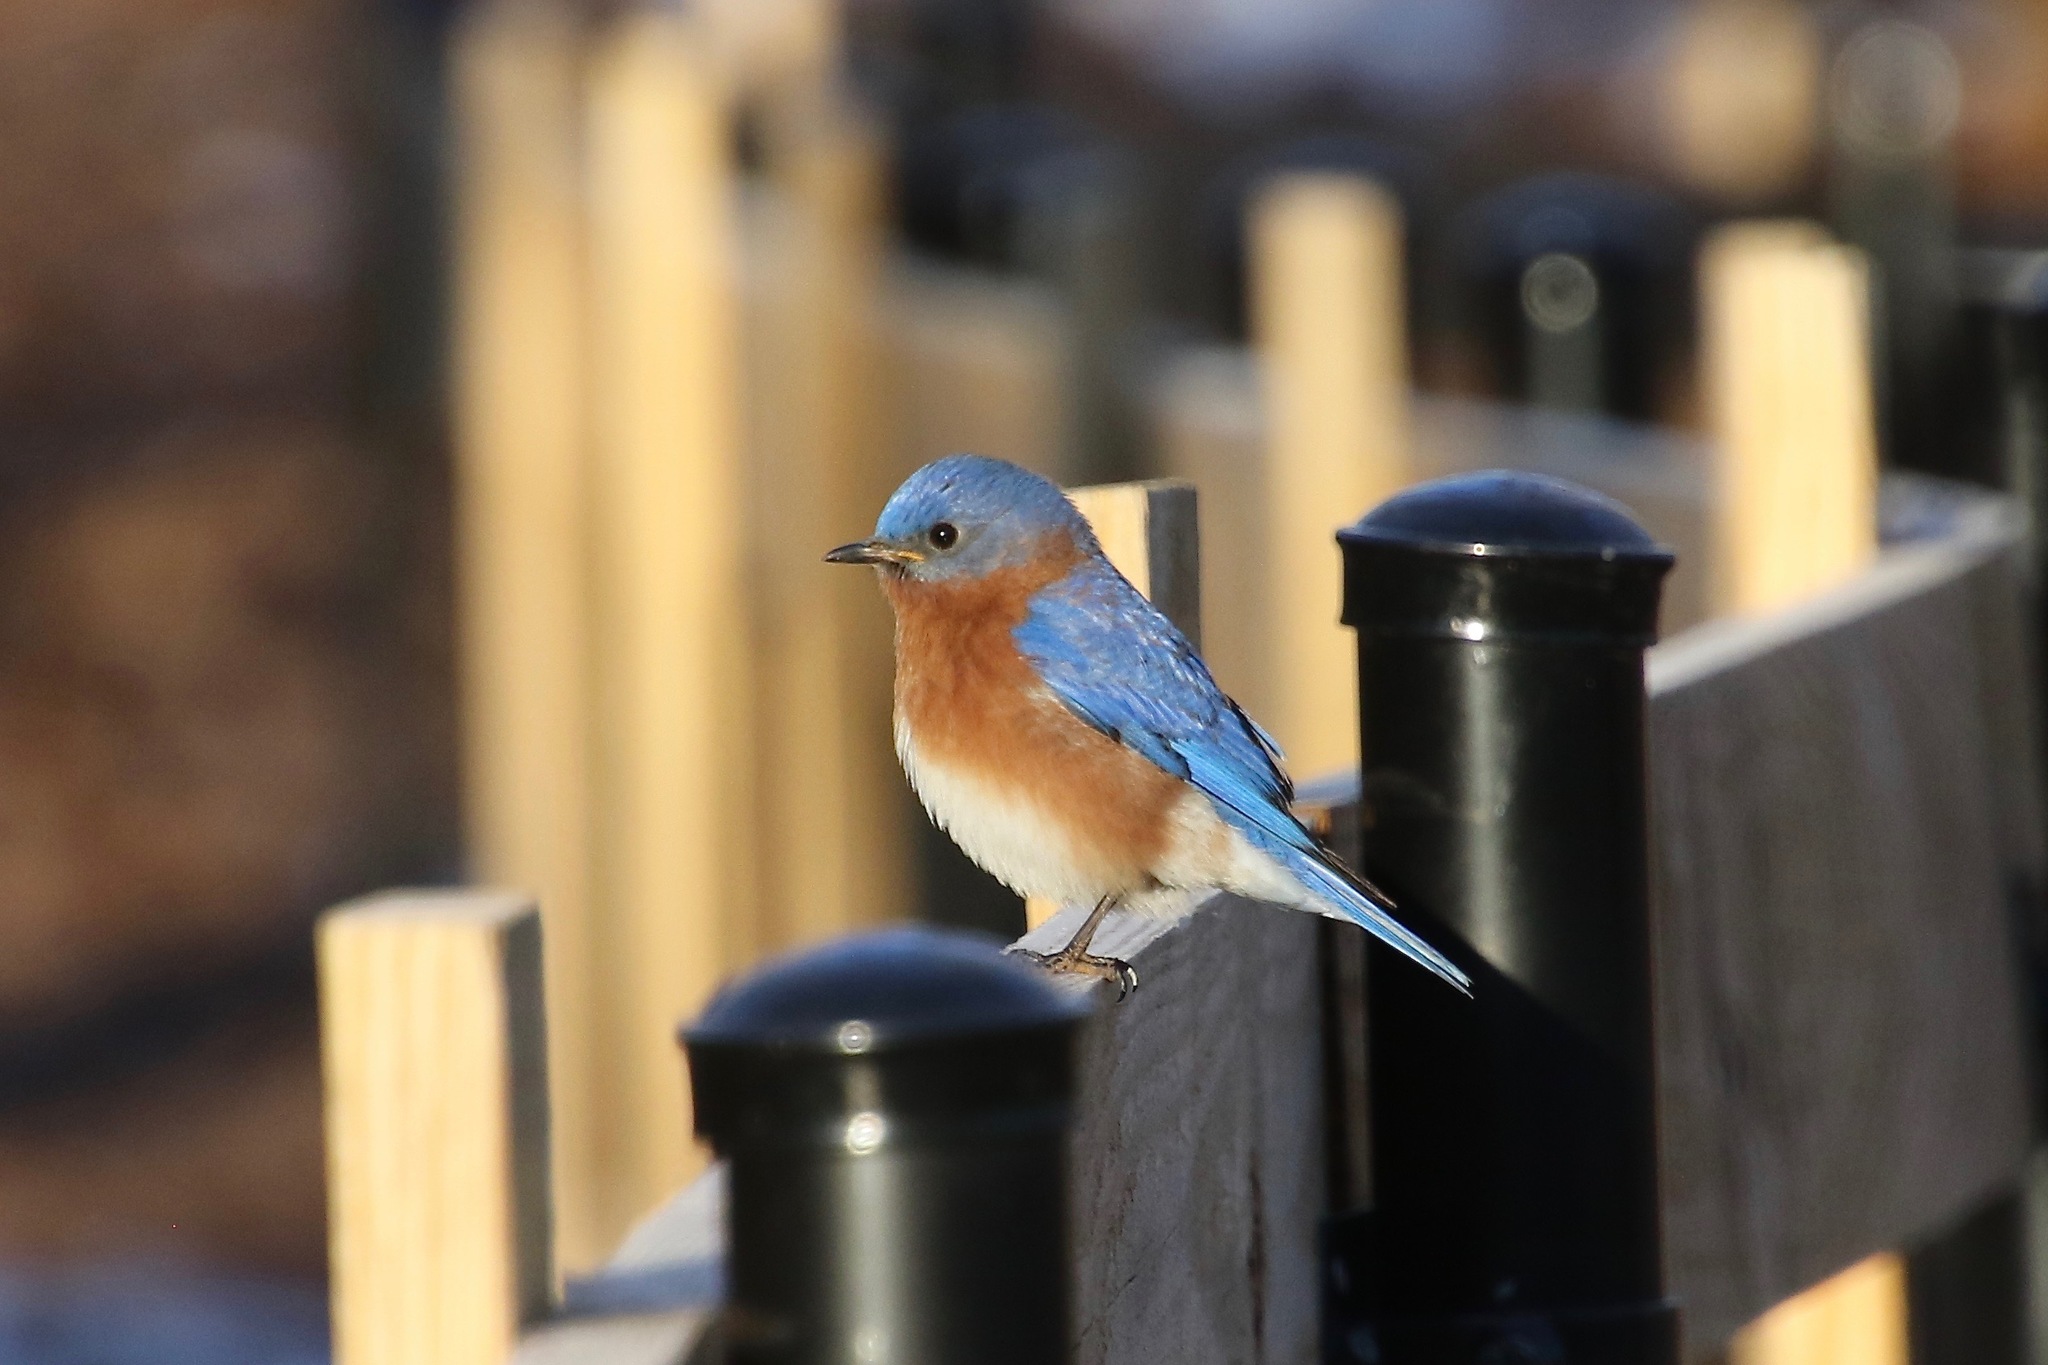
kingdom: Animalia
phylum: Chordata
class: Aves
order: Passeriformes
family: Turdidae
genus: Sialia
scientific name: Sialia sialis
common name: Eastern bluebird
